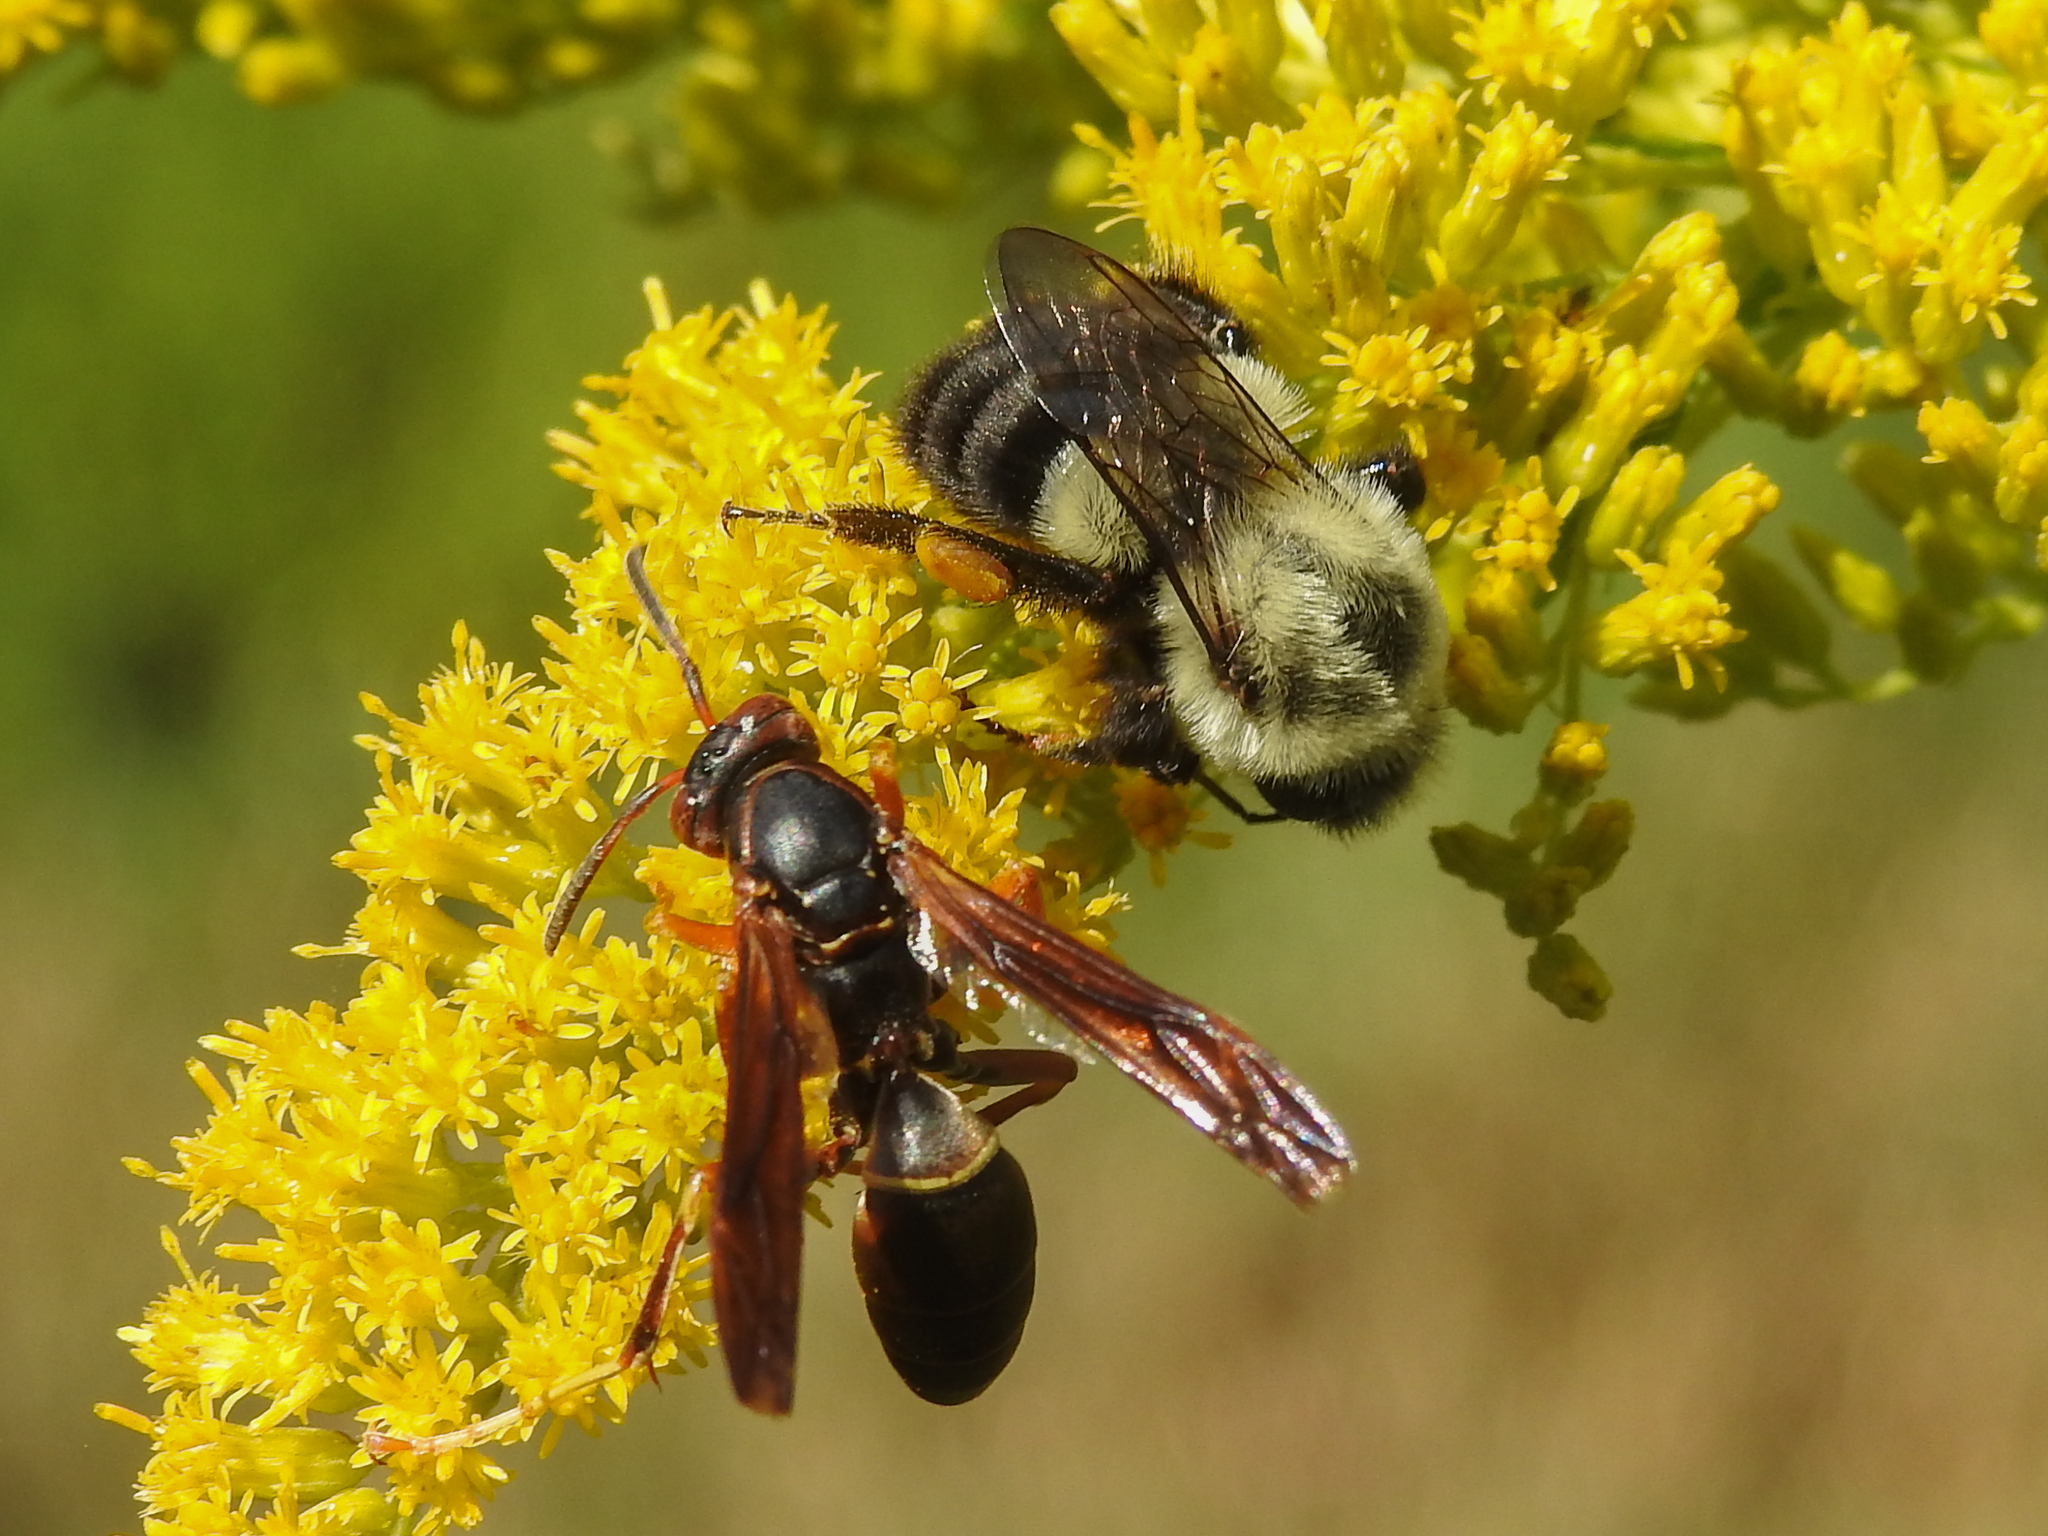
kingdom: Animalia
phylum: Arthropoda
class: Insecta
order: Hymenoptera
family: Eumenidae
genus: Polistes
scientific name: Polistes fuscatus
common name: Dark paper wasp
